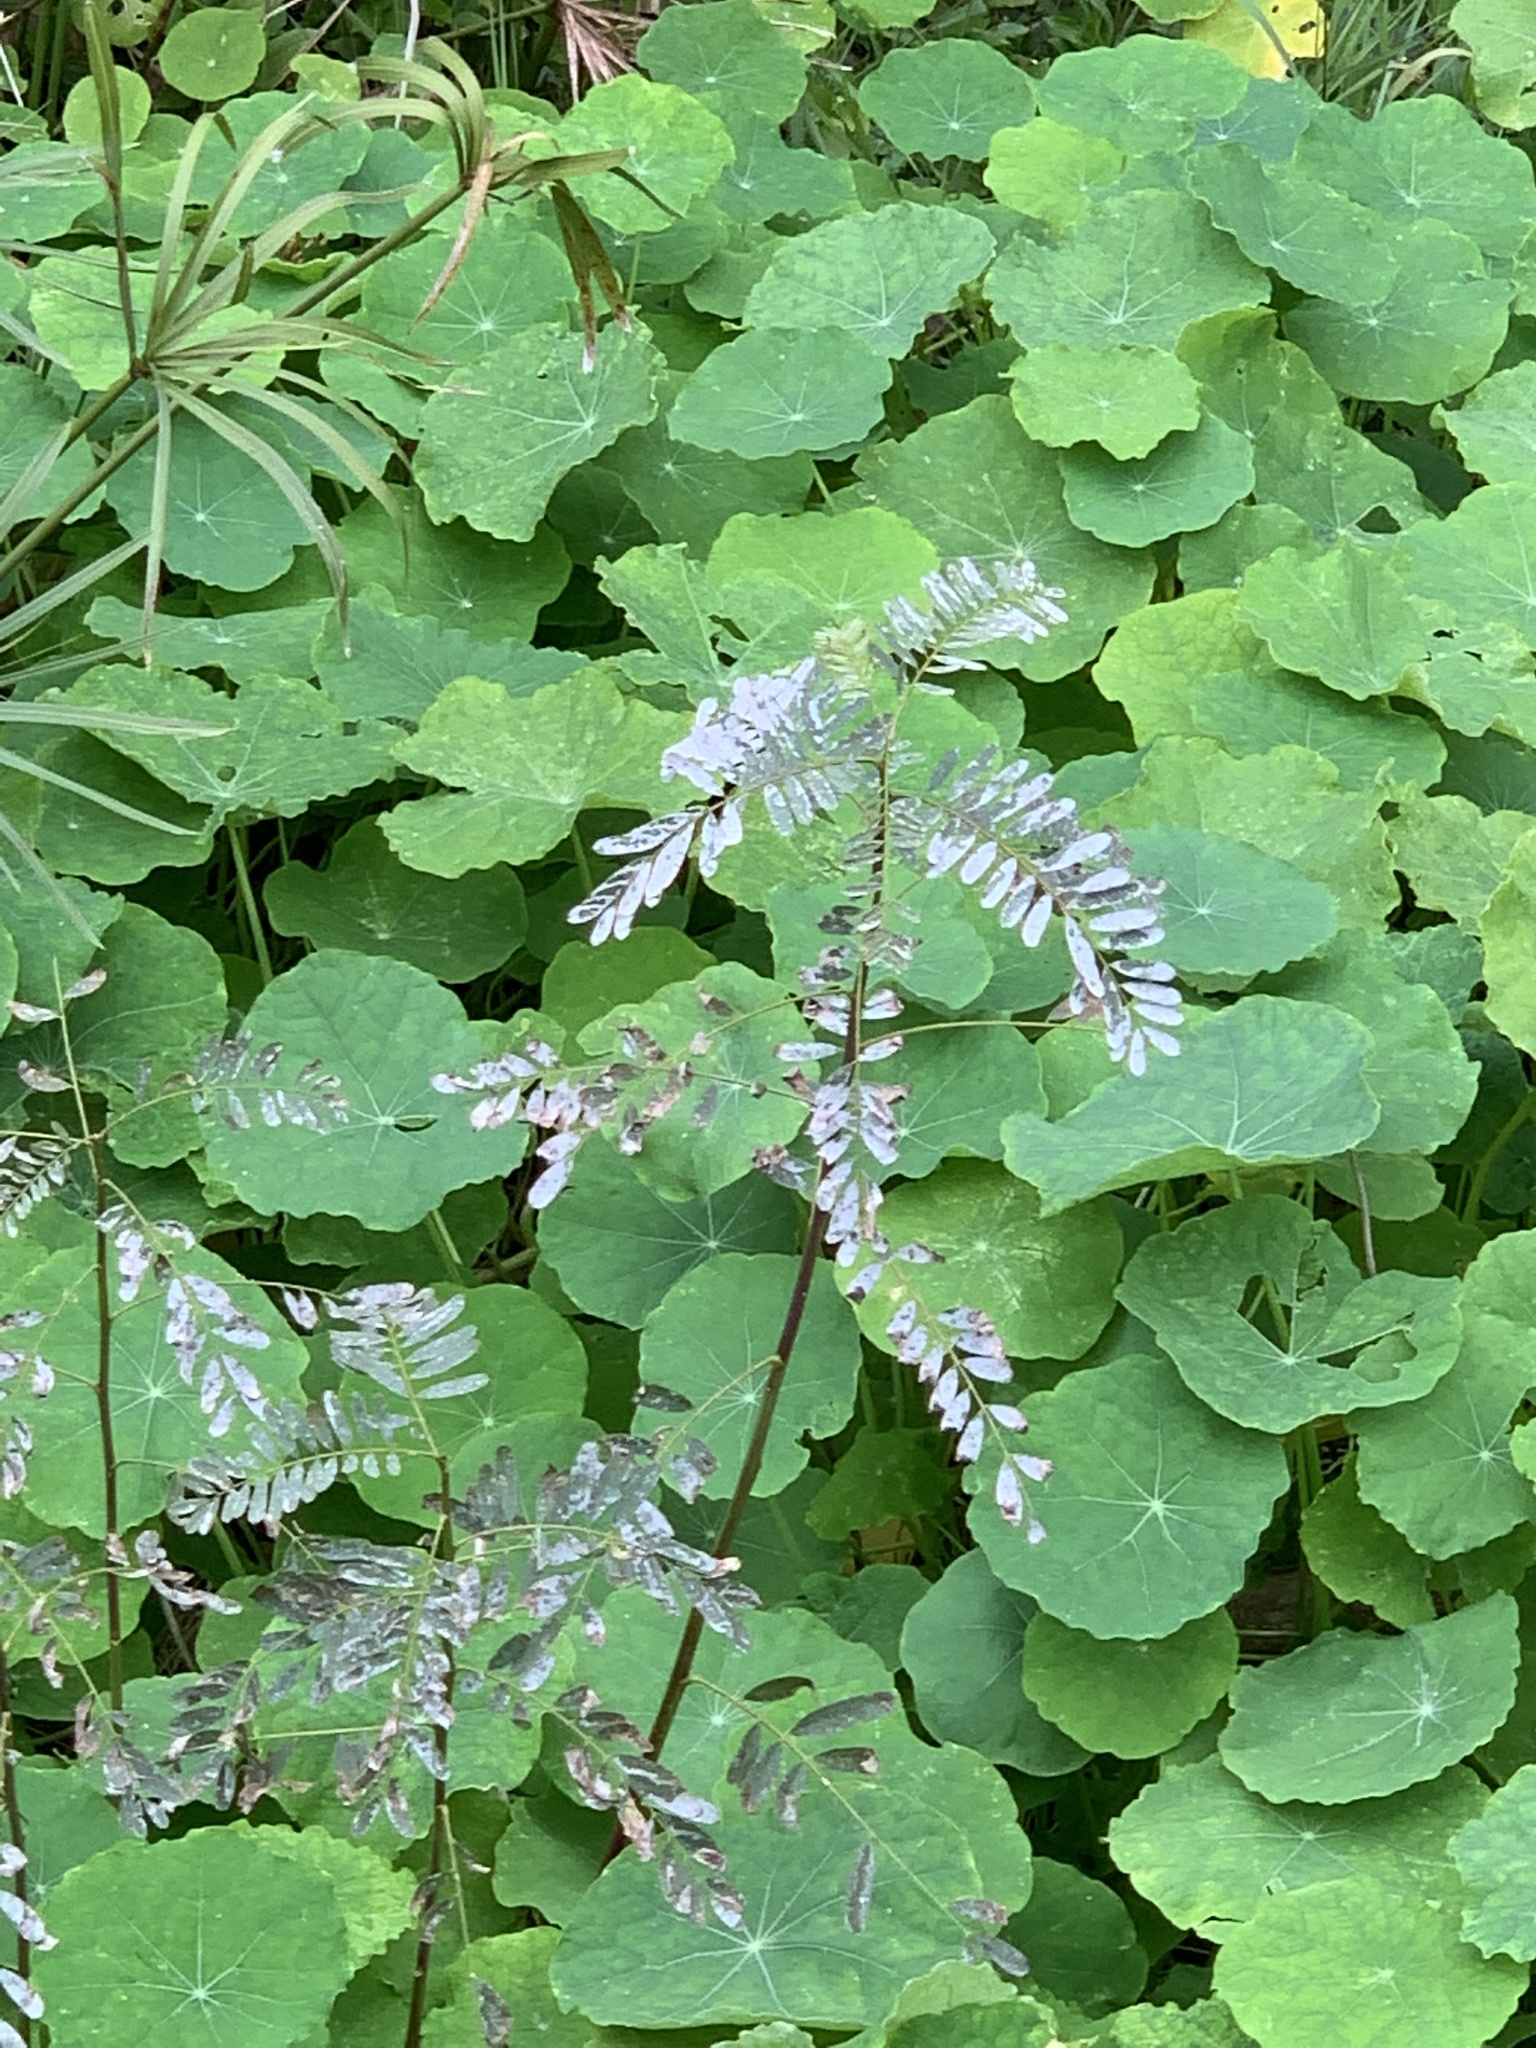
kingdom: Plantae
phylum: Tracheophyta
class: Magnoliopsida
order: Fabales
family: Fabaceae
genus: Sesbania
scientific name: Sesbania punicea
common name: Rattlebox
